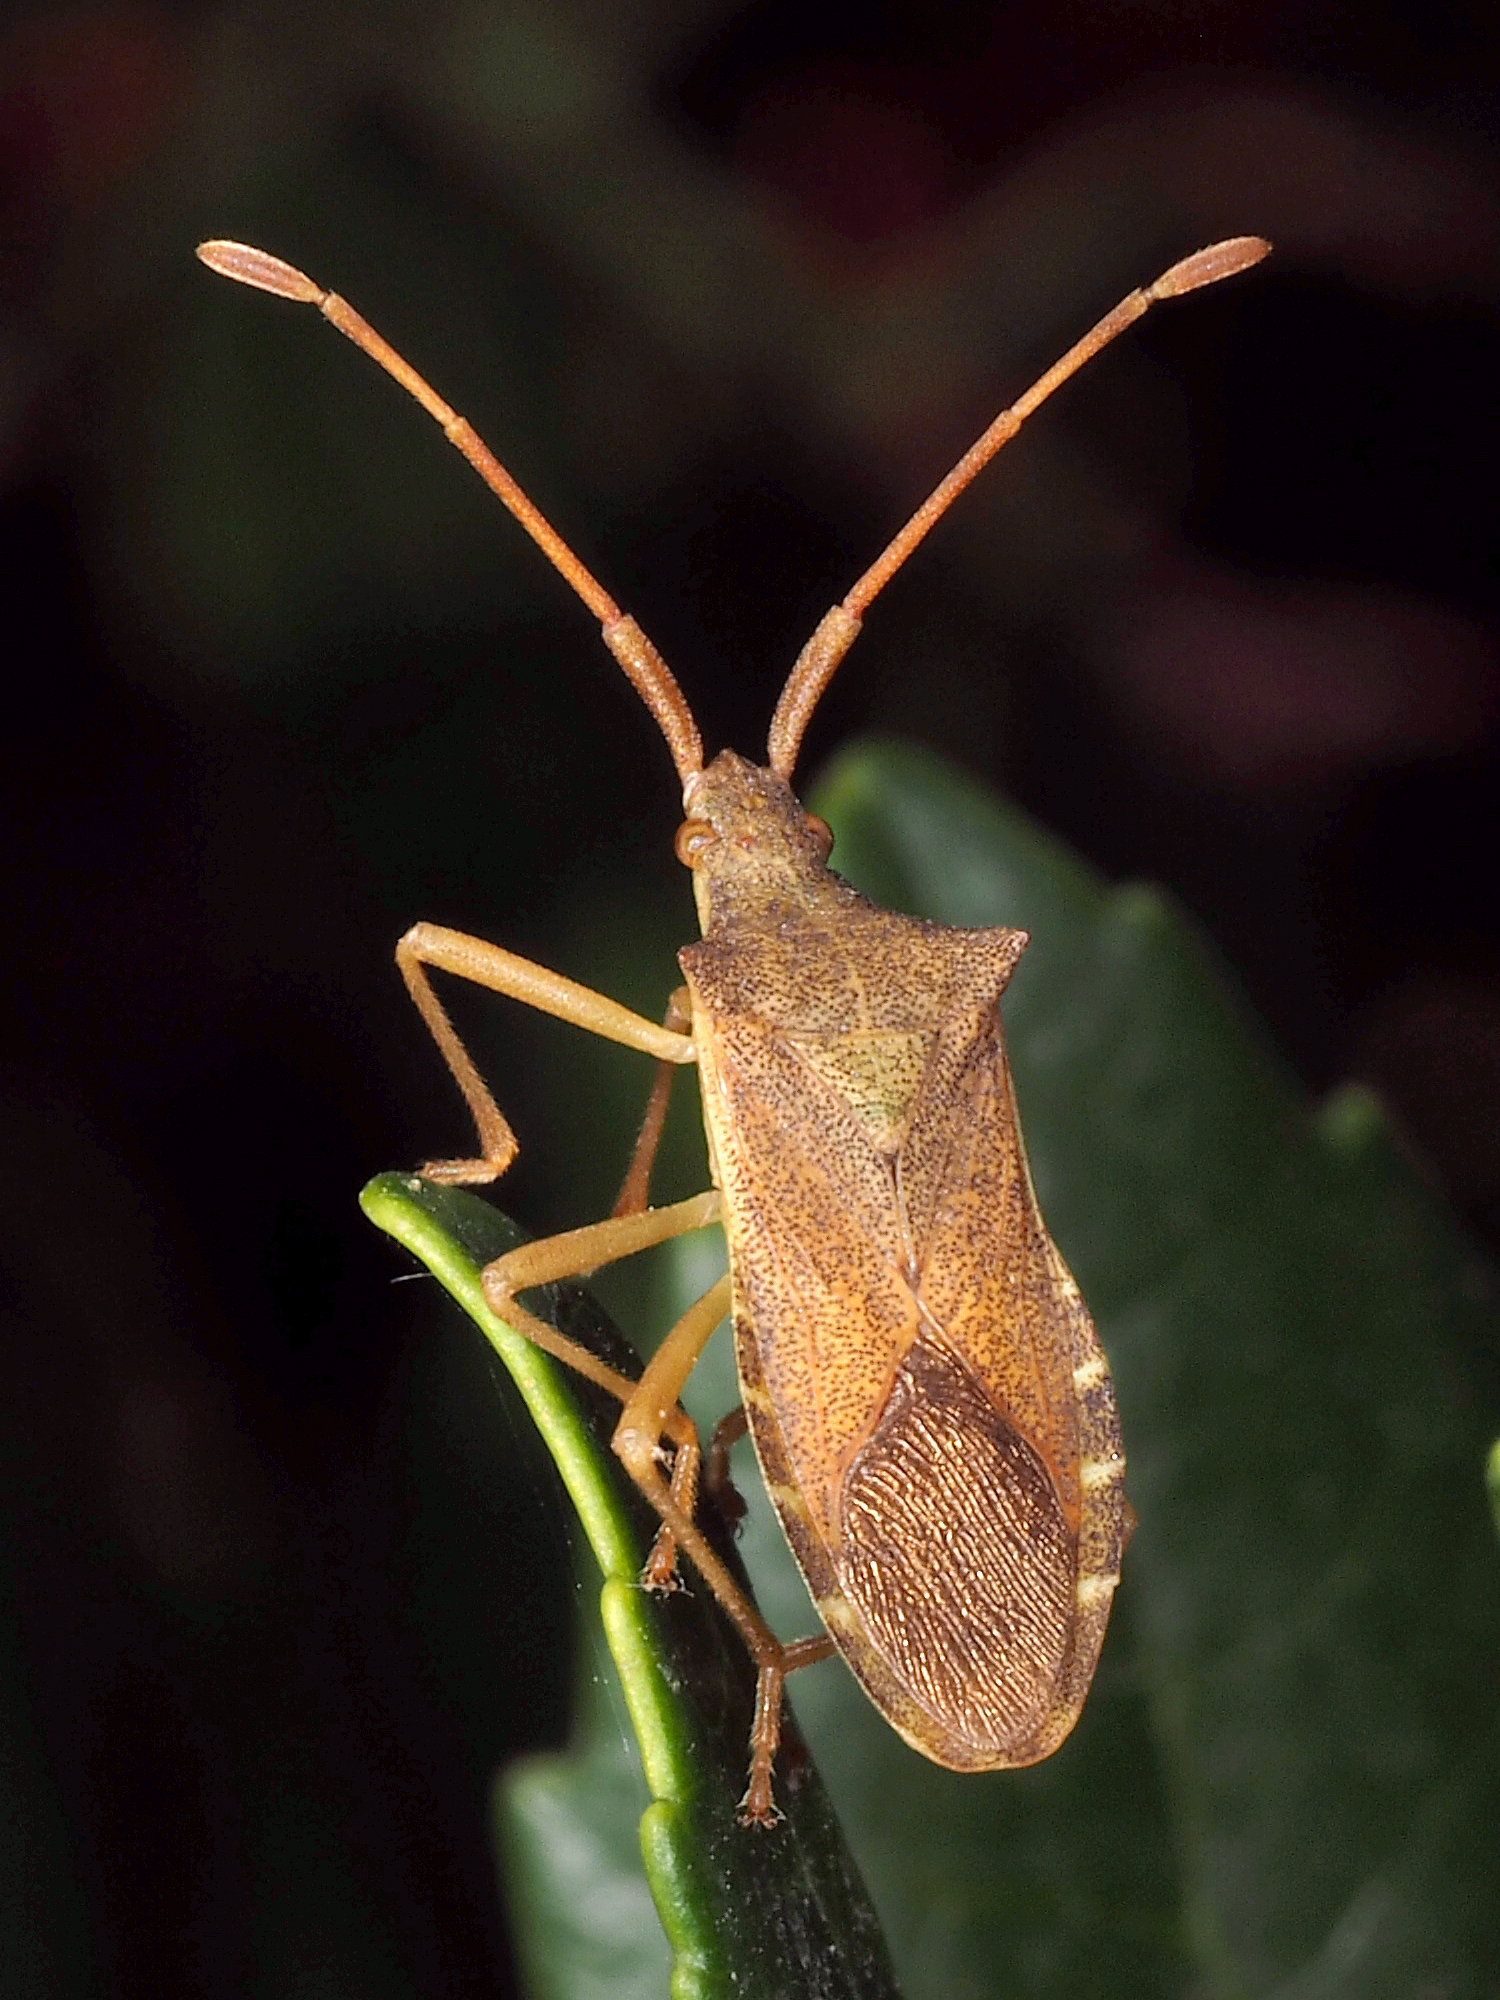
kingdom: Animalia
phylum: Arthropoda
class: Insecta
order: Hemiptera
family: Coreidae
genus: Gonocerus
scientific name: Gonocerus acuteangulatus
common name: Box bug
